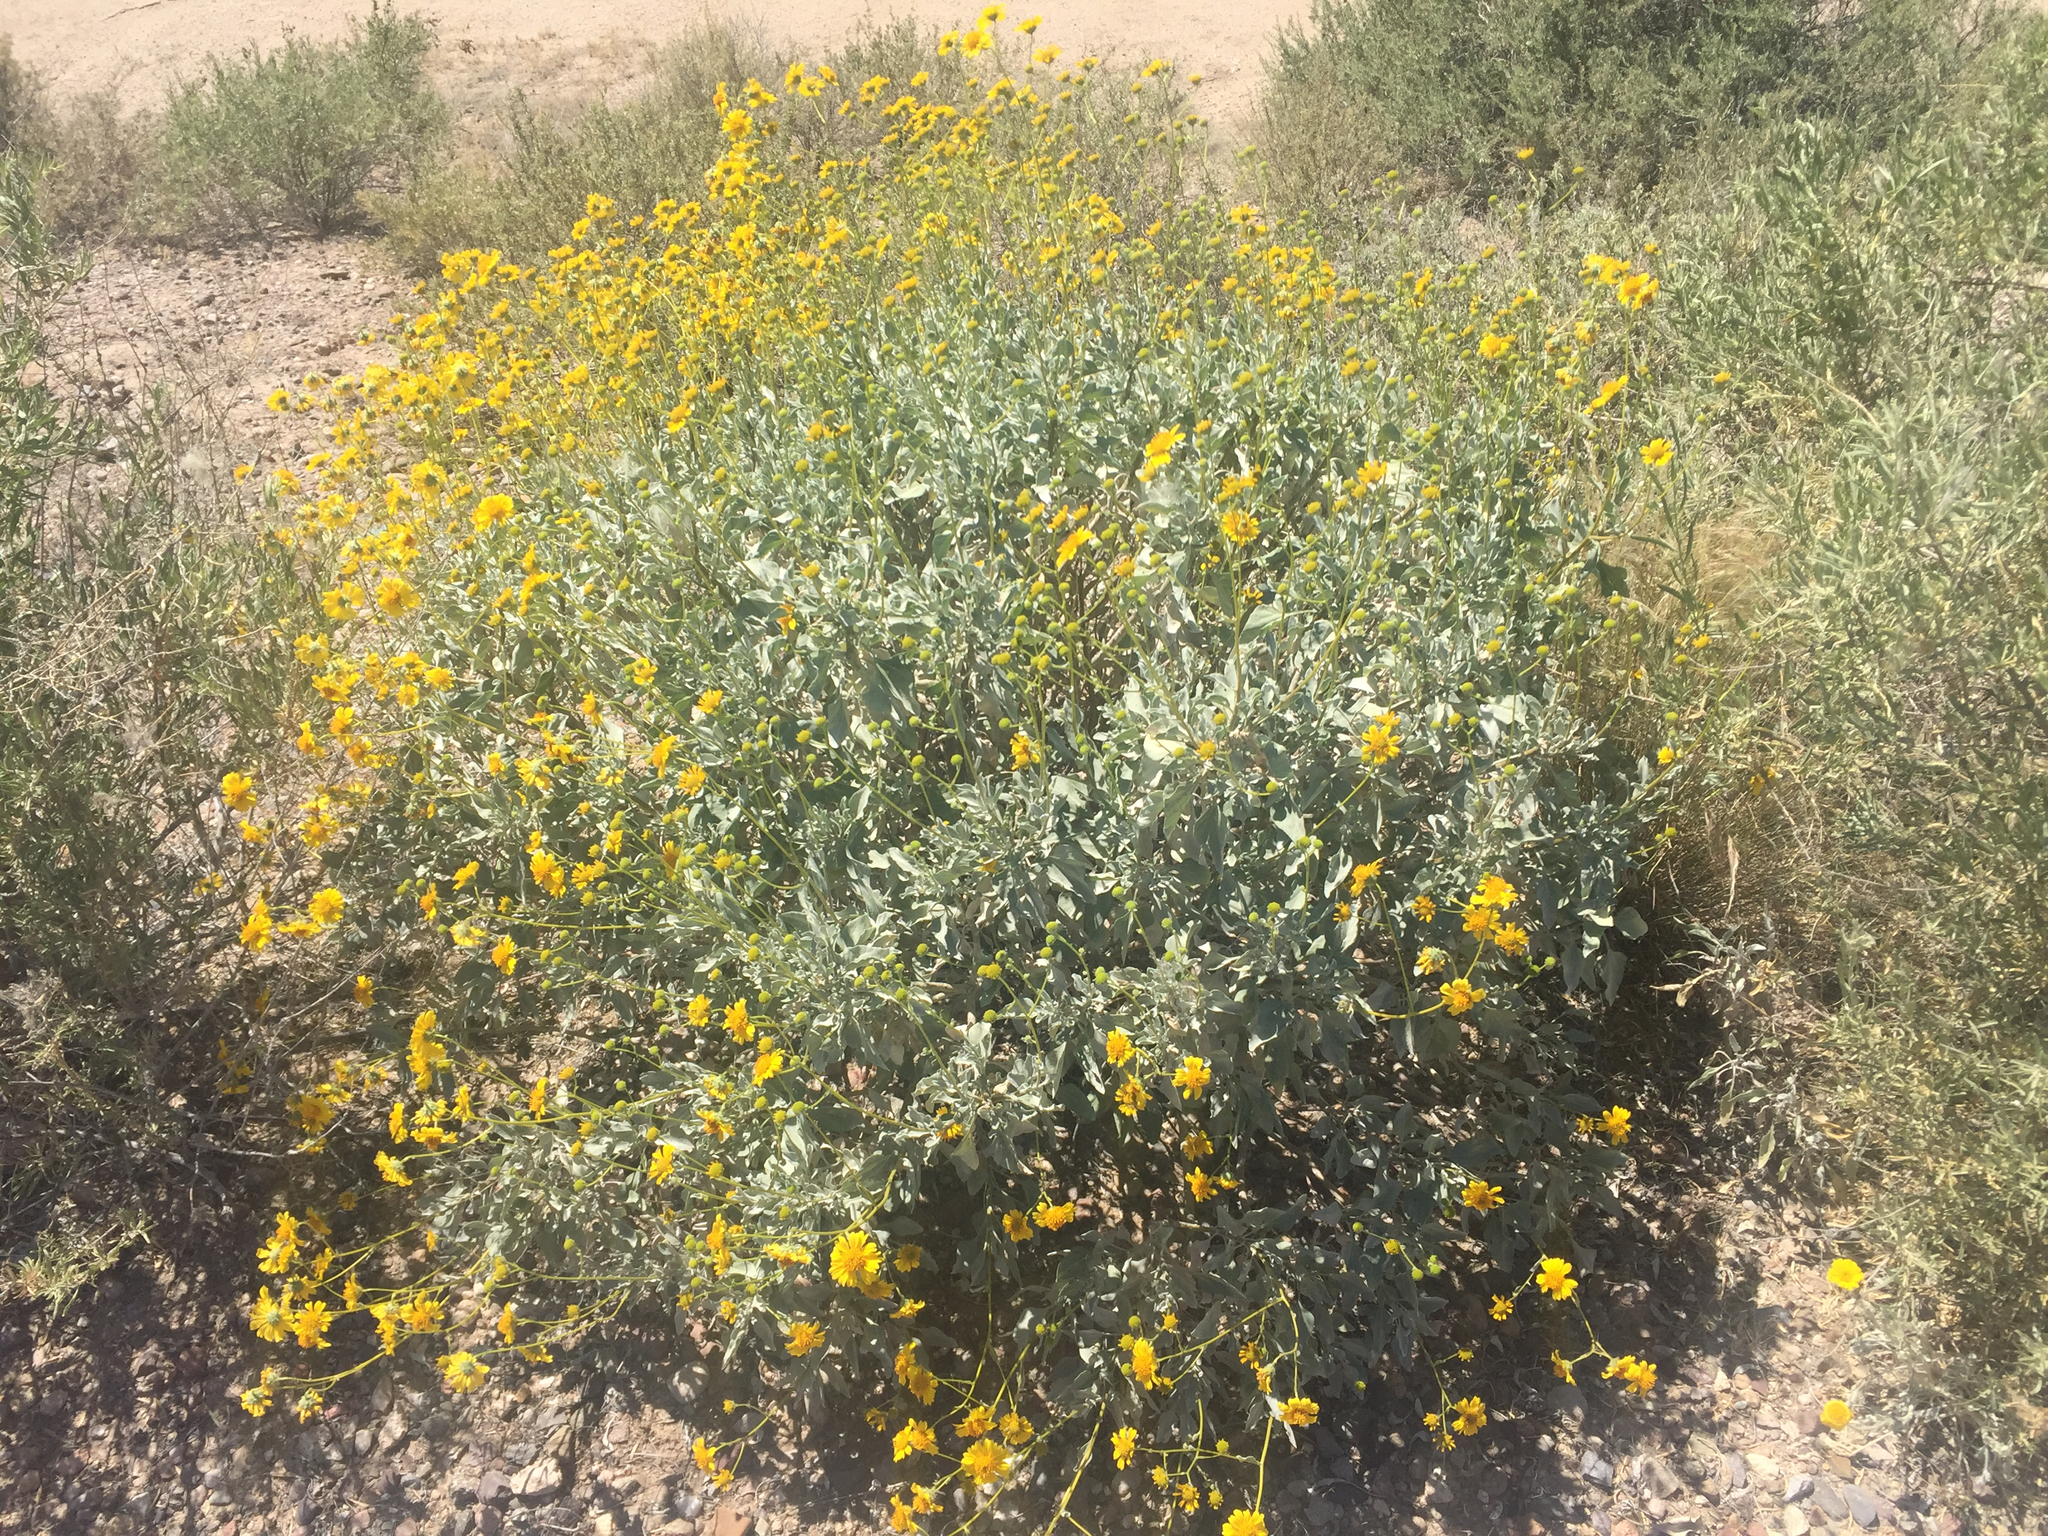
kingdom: Plantae
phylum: Tracheophyta
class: Magnoliopsida
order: Asterales
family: Asteraceae
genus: Encelia
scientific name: Encelia farinosa
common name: Brittlebush
